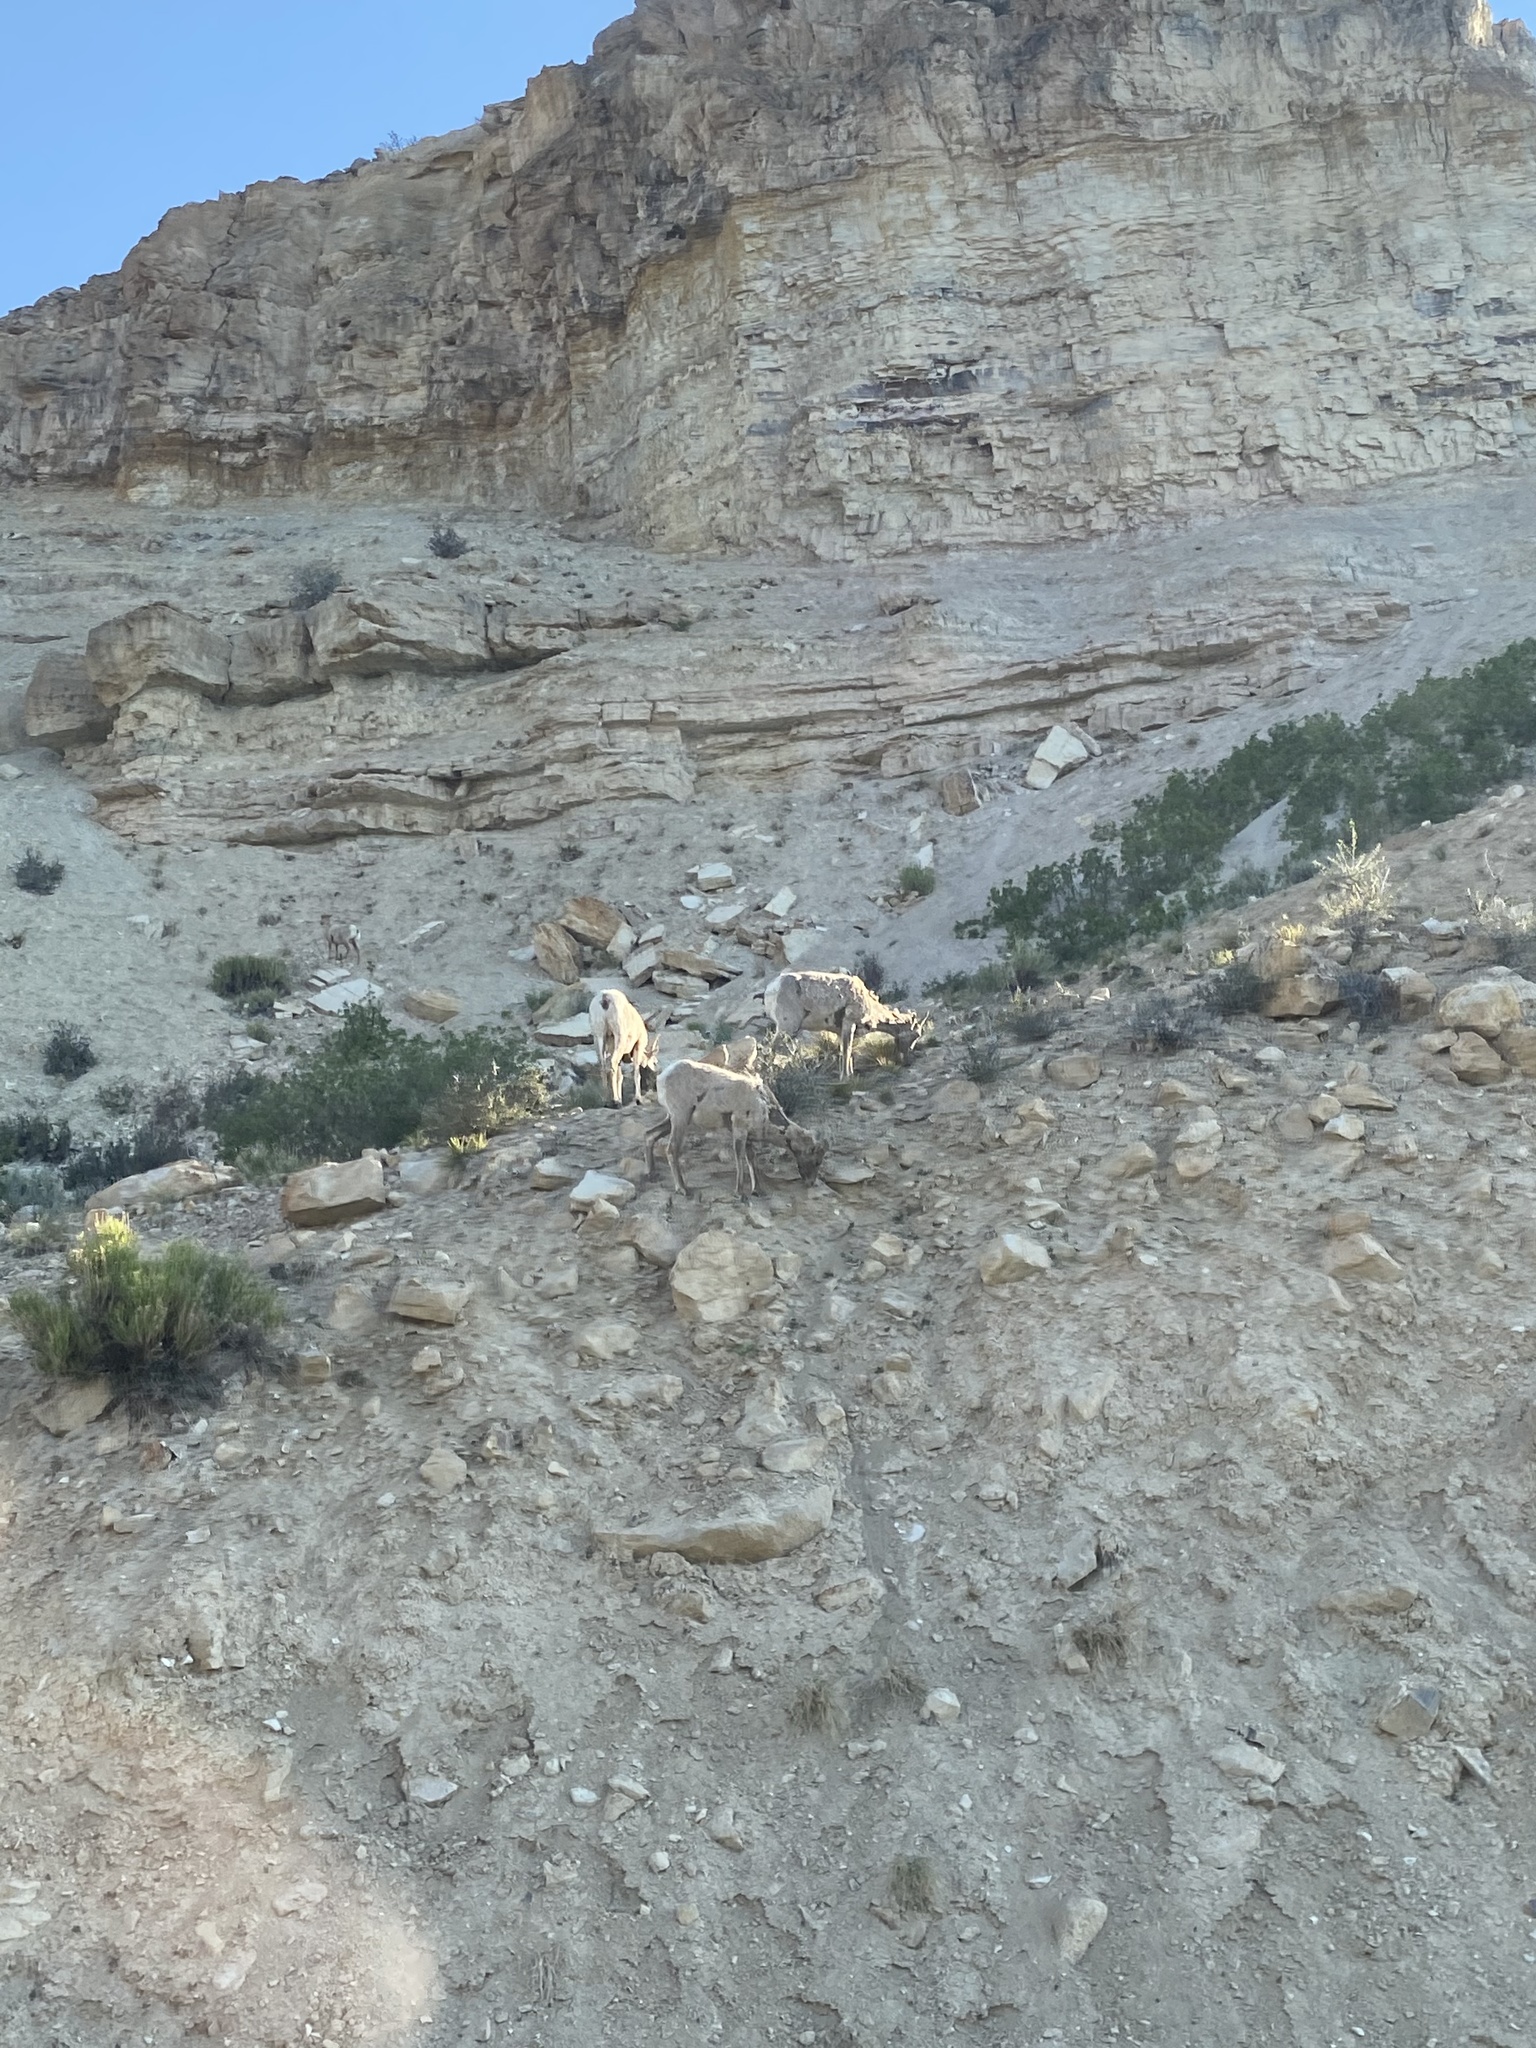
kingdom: Animalia
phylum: Chordata
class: Mammalia
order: Artiodactyla
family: Bovidae
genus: Ovis
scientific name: Ovis canadensis
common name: Bighorn sheep
